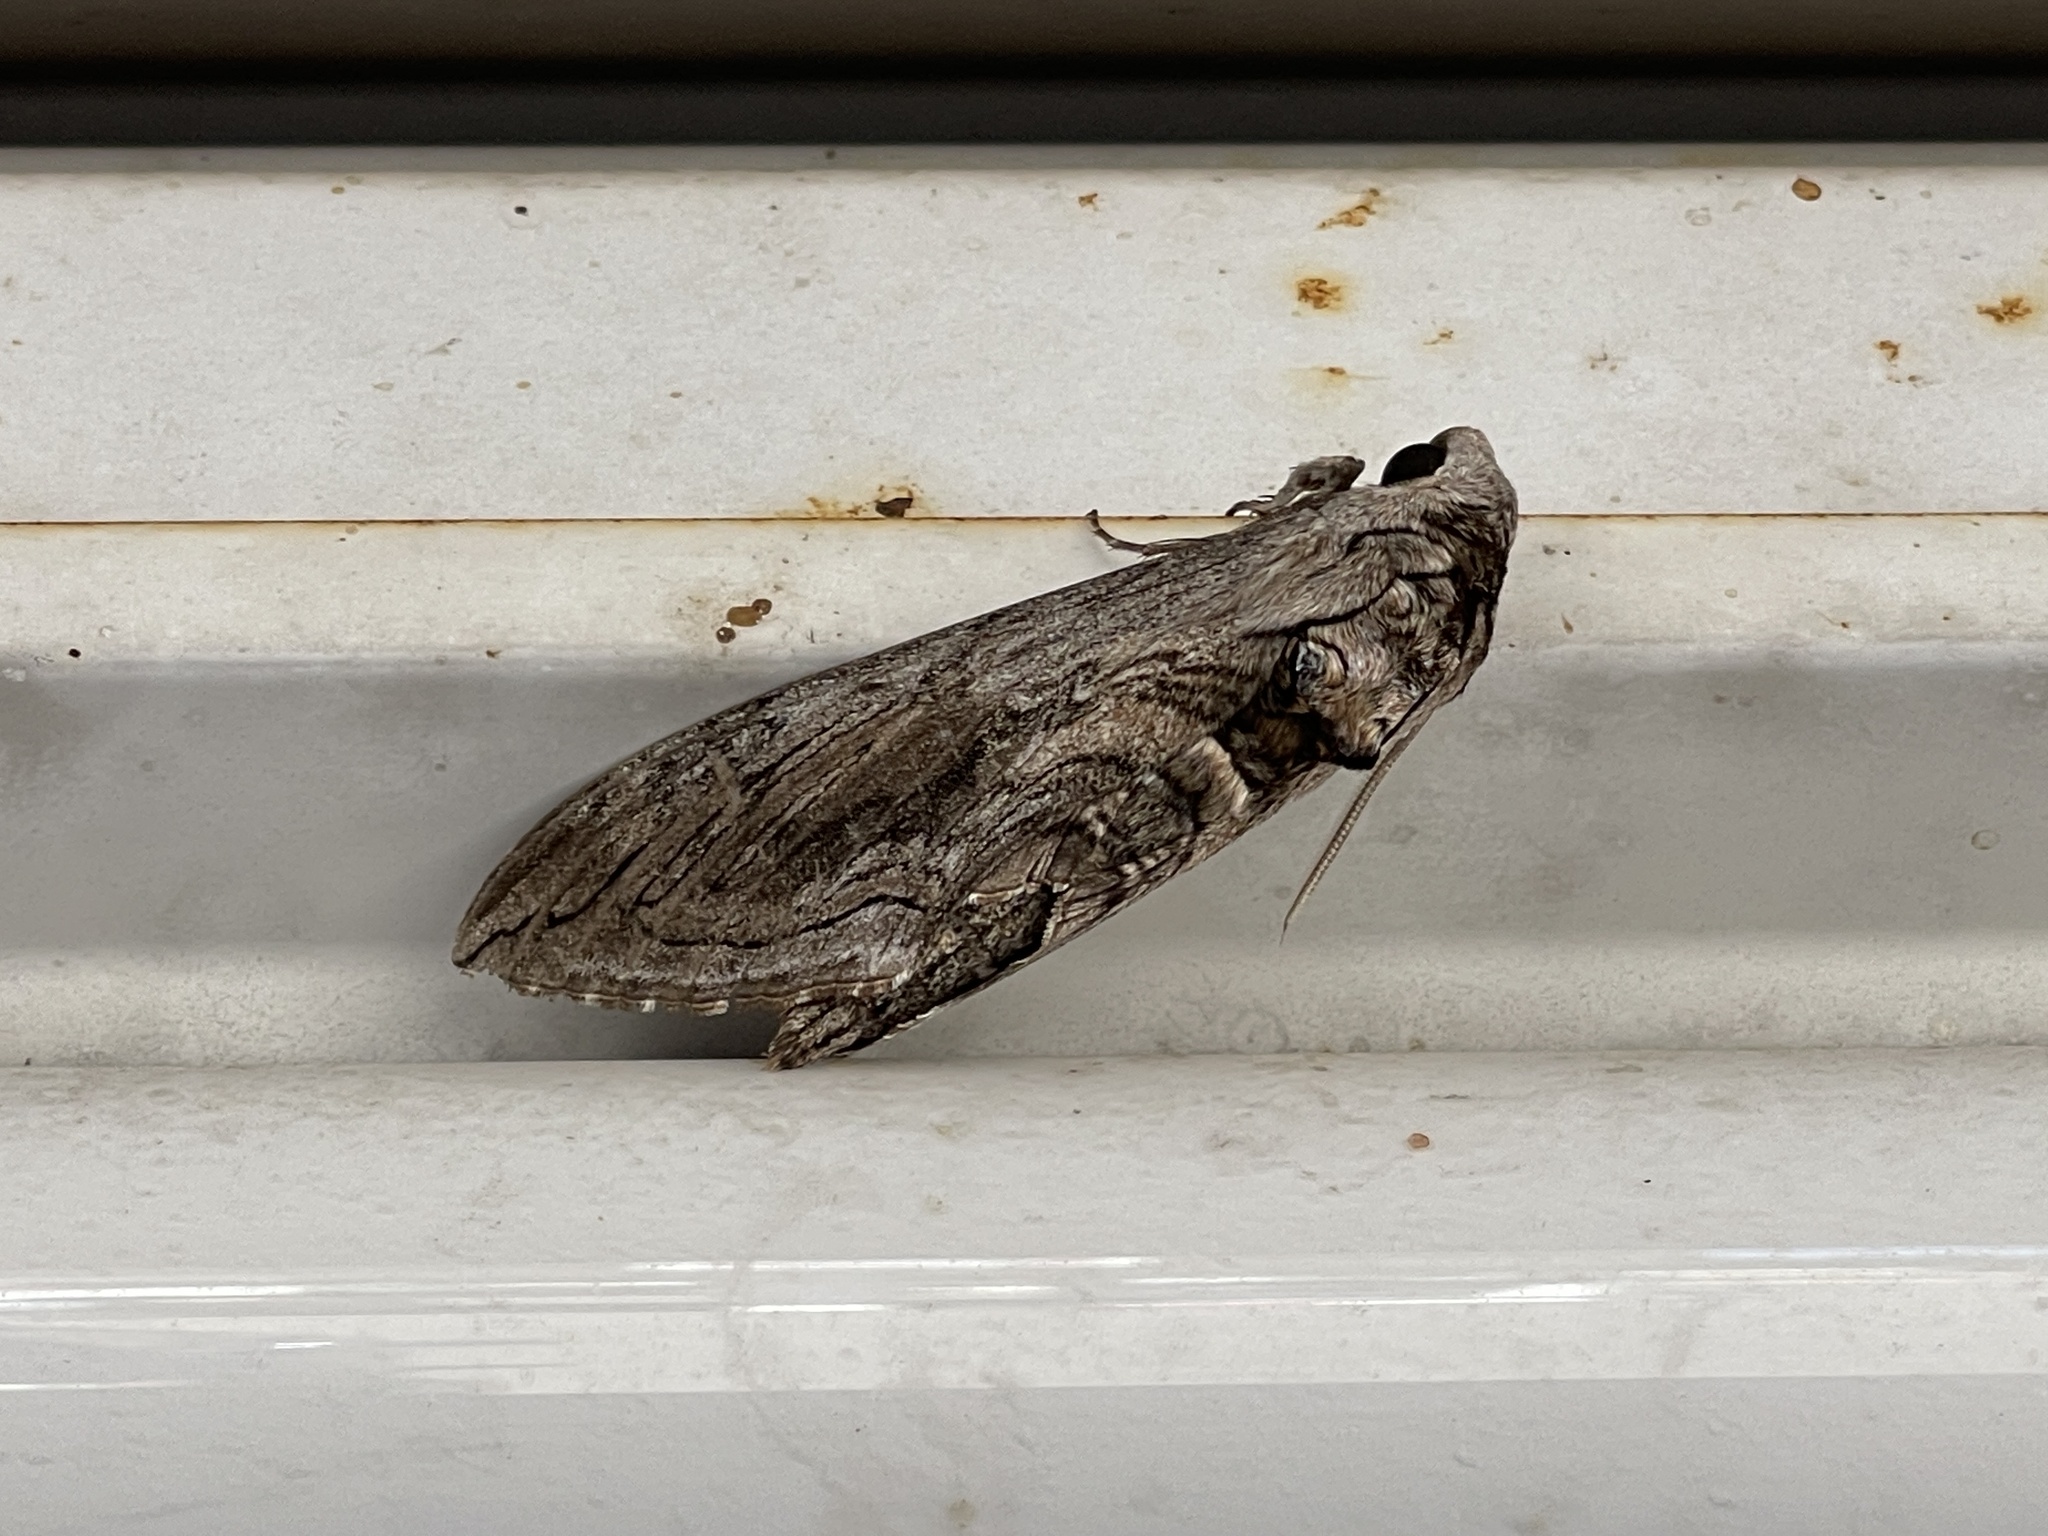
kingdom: Animalia
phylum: Arthropoda
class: Insecta
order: Lepidoptera
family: Sphingidae
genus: Manduca
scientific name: Manduca quinquemaculatus
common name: Five-spotted hawk-moth
